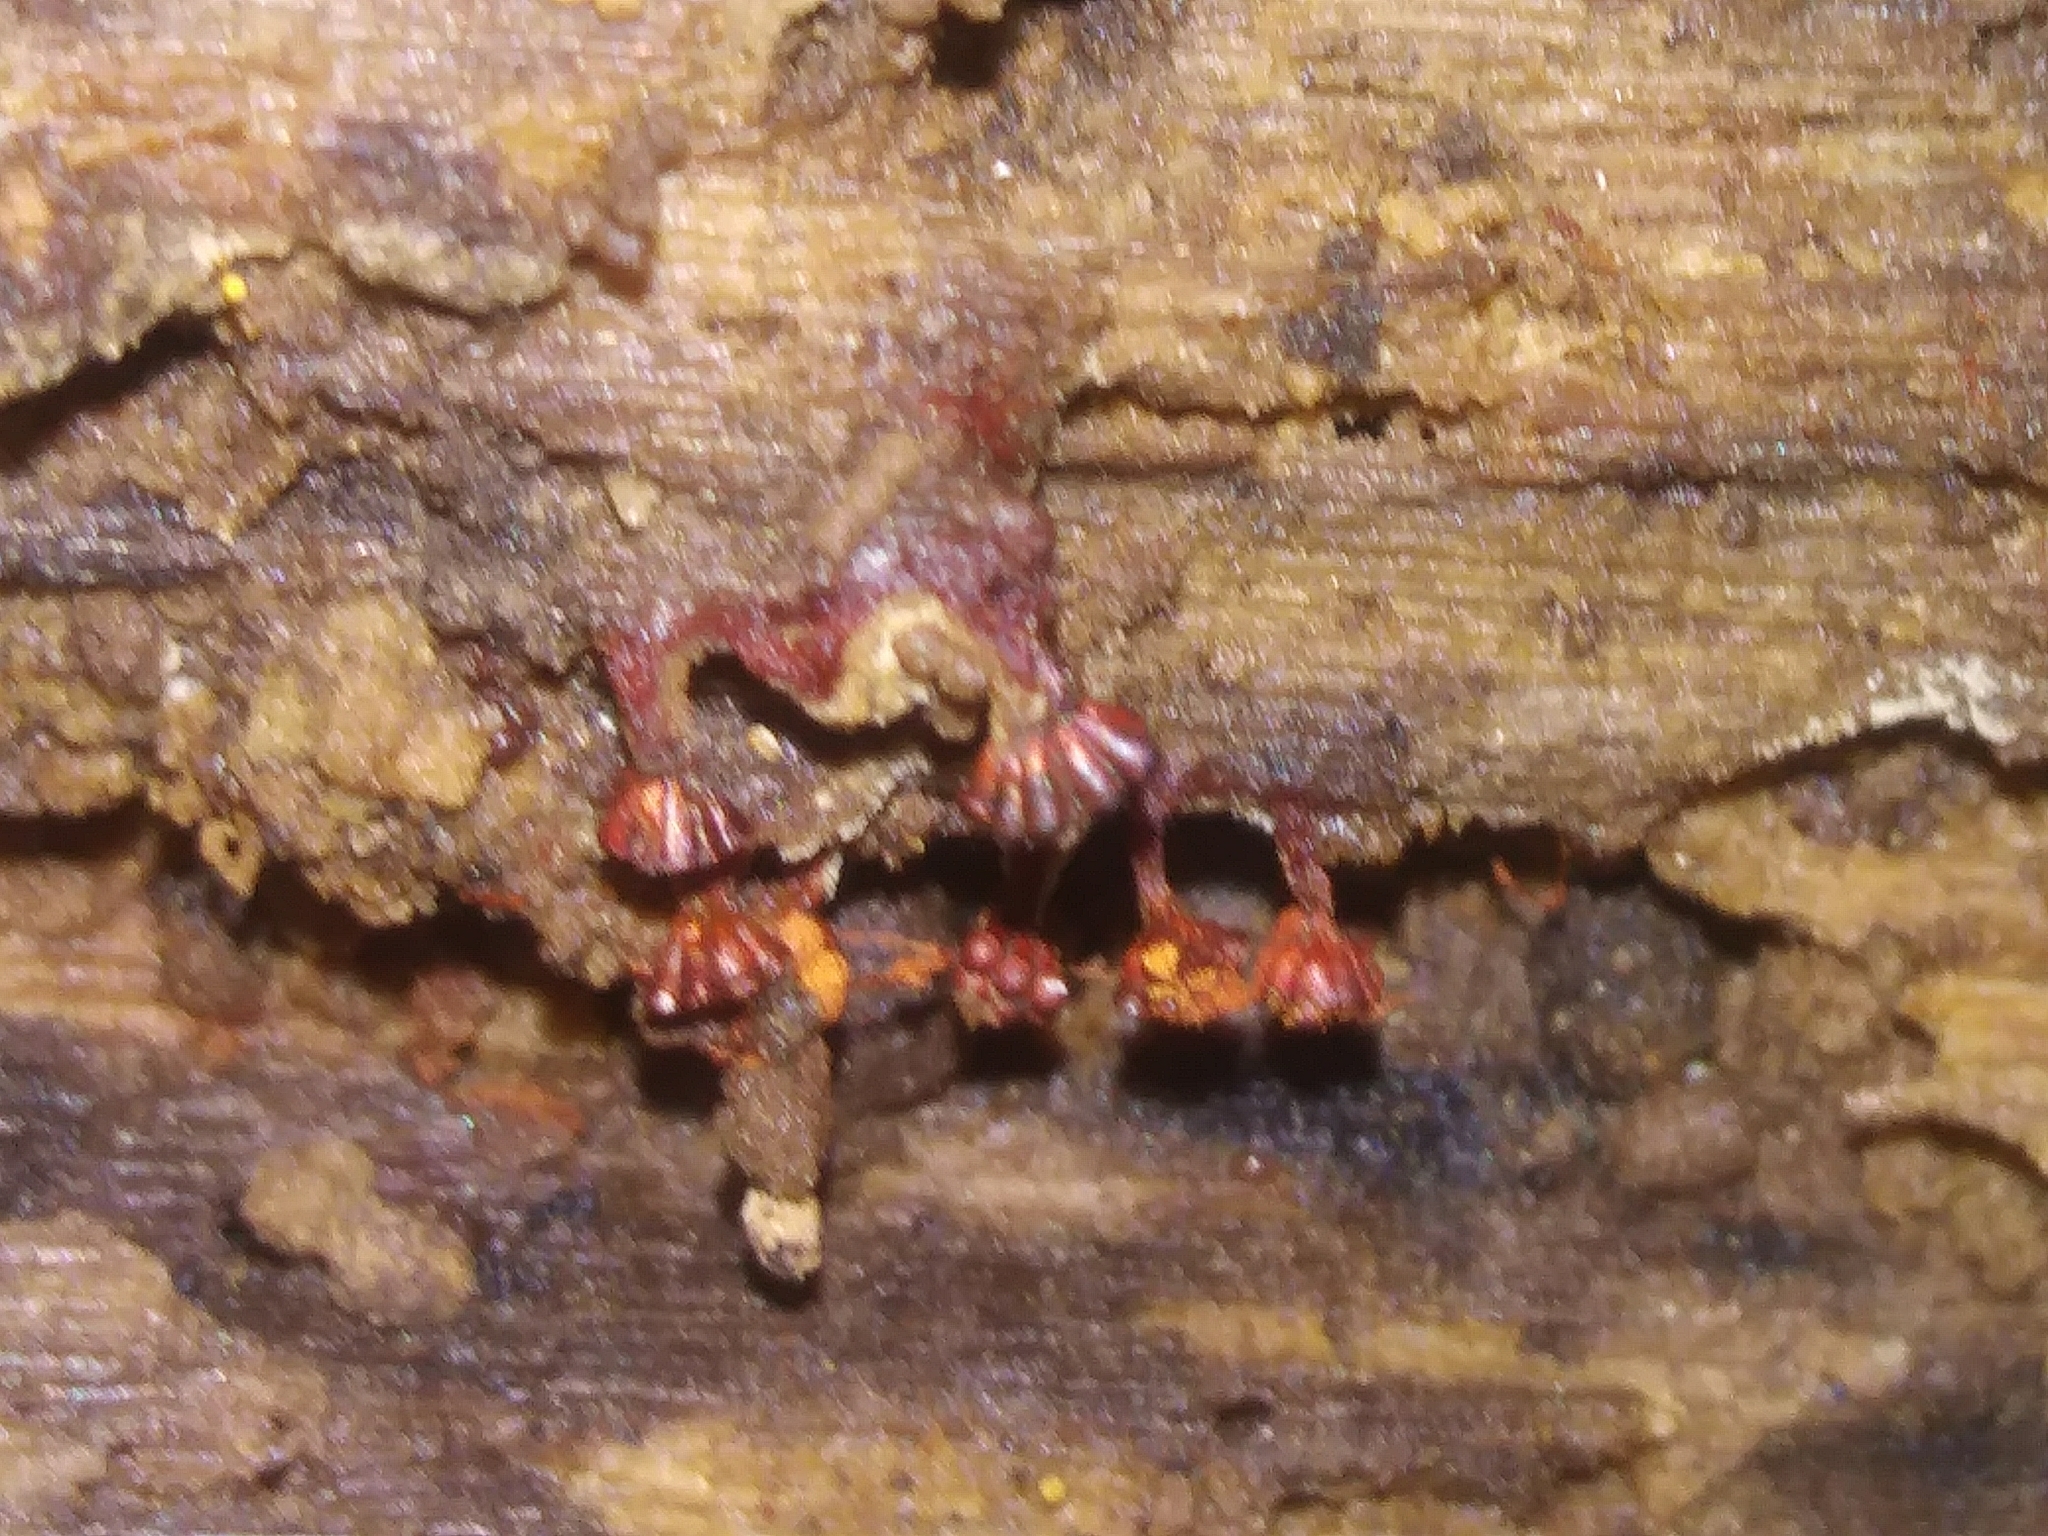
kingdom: Protozoa
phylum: Mycetozoa
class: Myxomycetes
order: Trichiales
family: Trichiaceae
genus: Metatrichia
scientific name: Metatrichia vesparia
